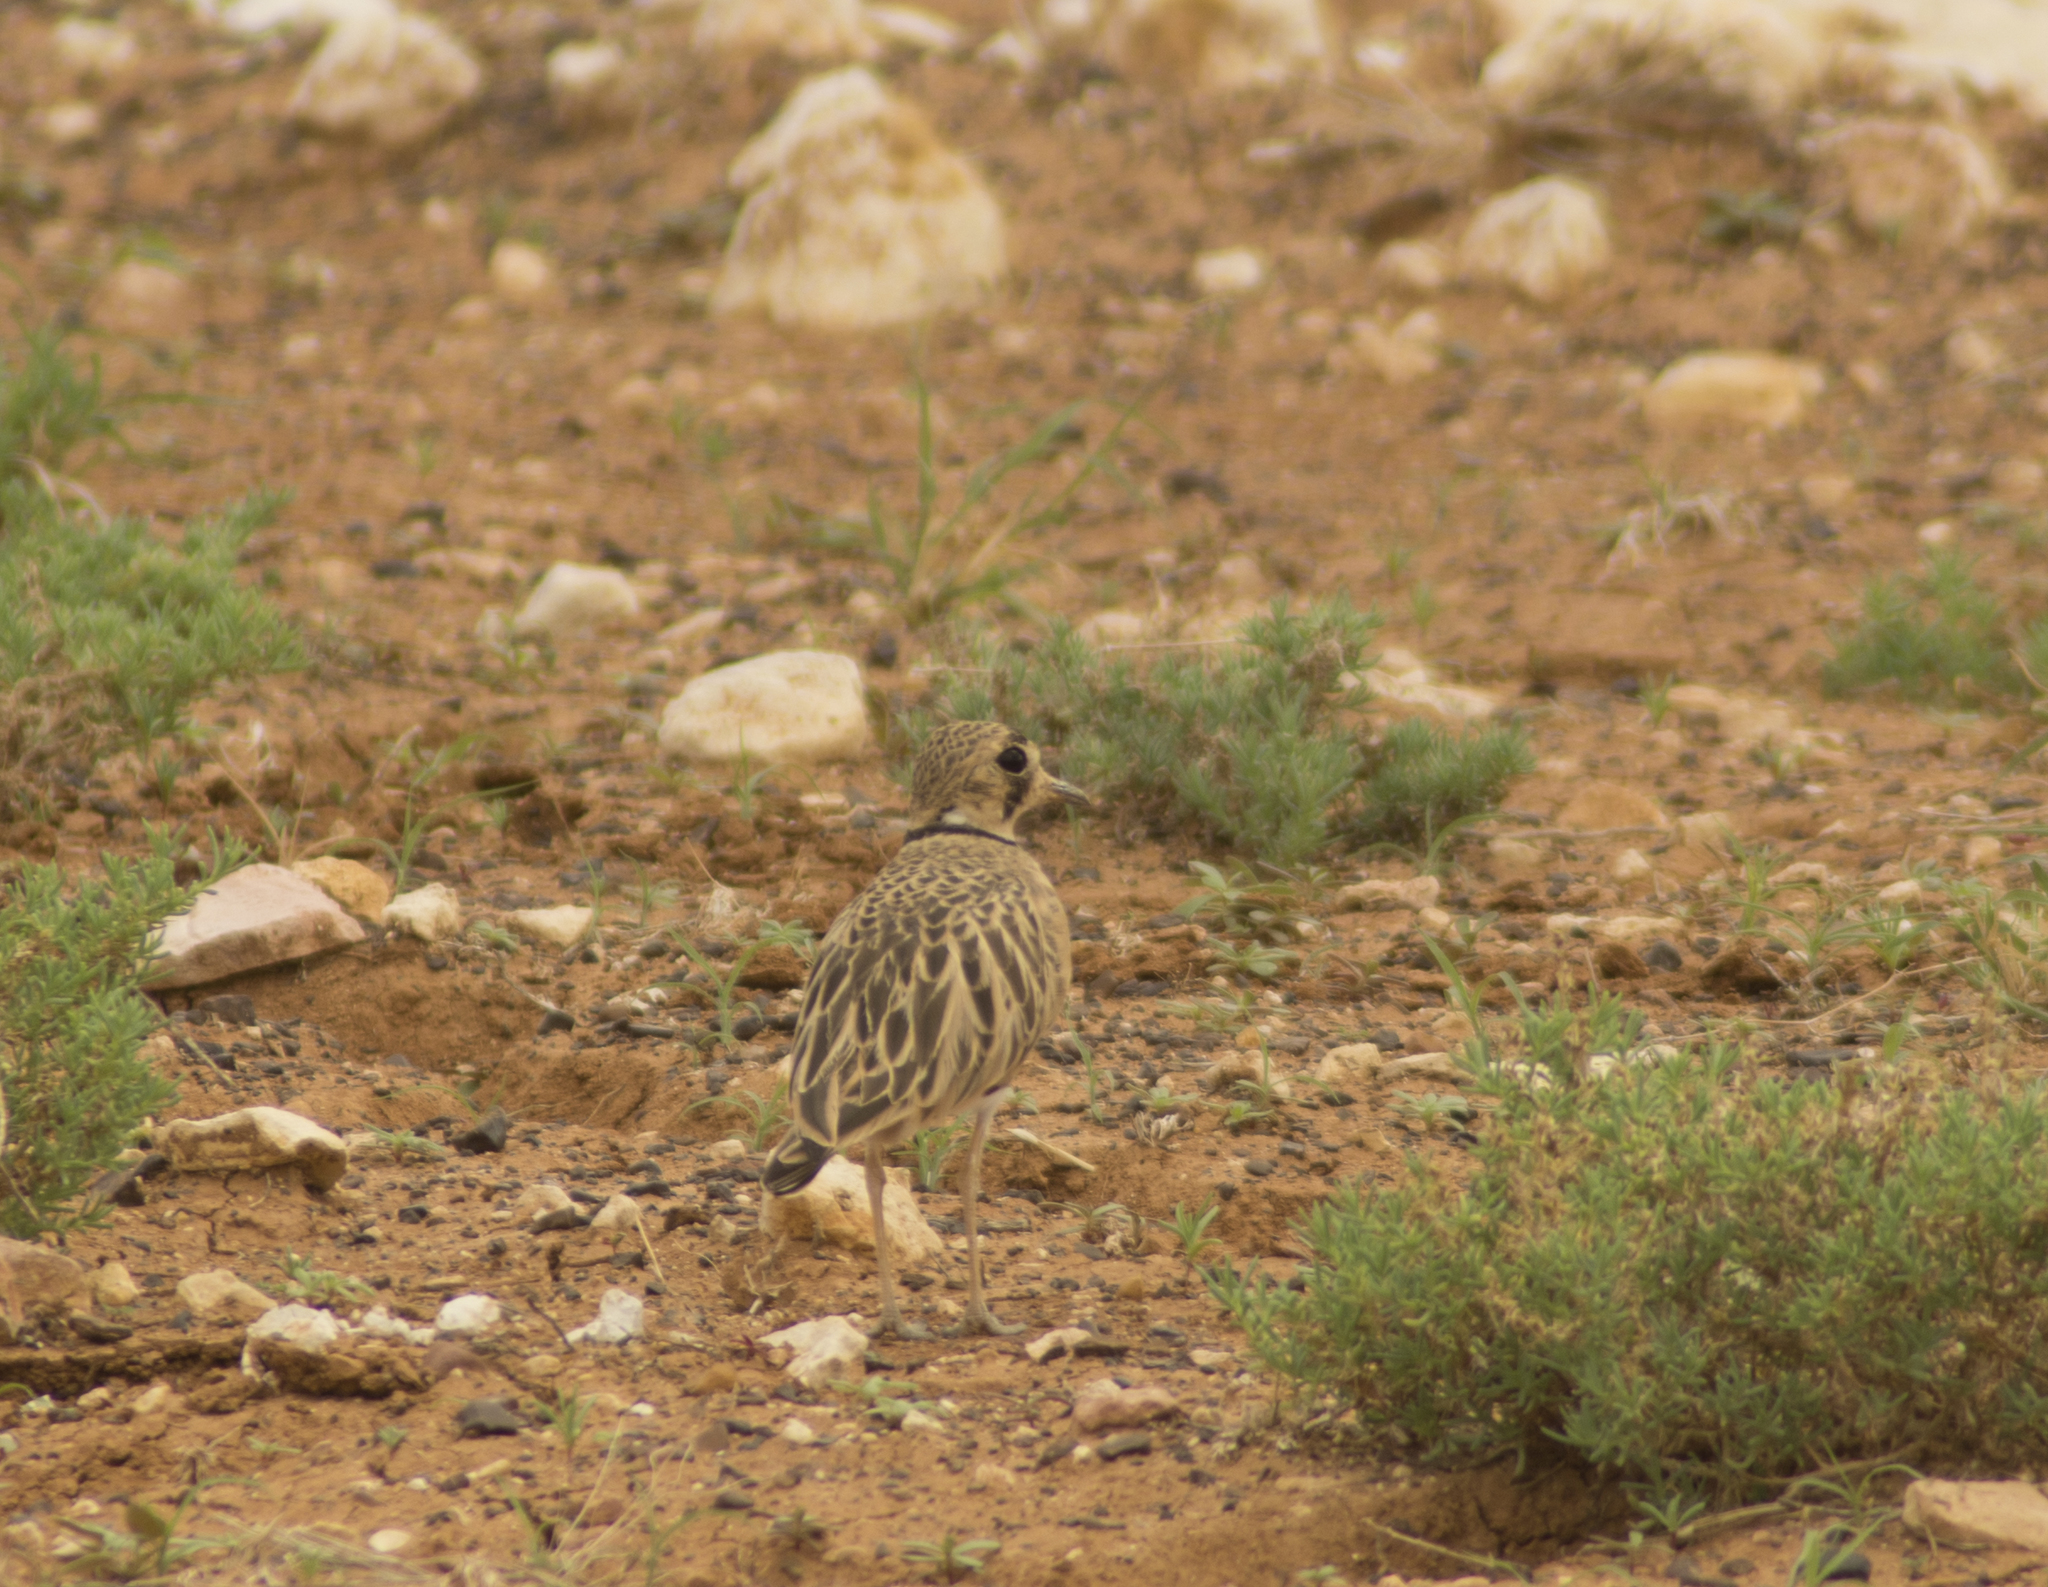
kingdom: Animalia
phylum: Chordata
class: Aves
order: Charadriiformes
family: Charadriidae
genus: Peltohyas
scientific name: Peltohyas australis
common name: Inland dotterel
